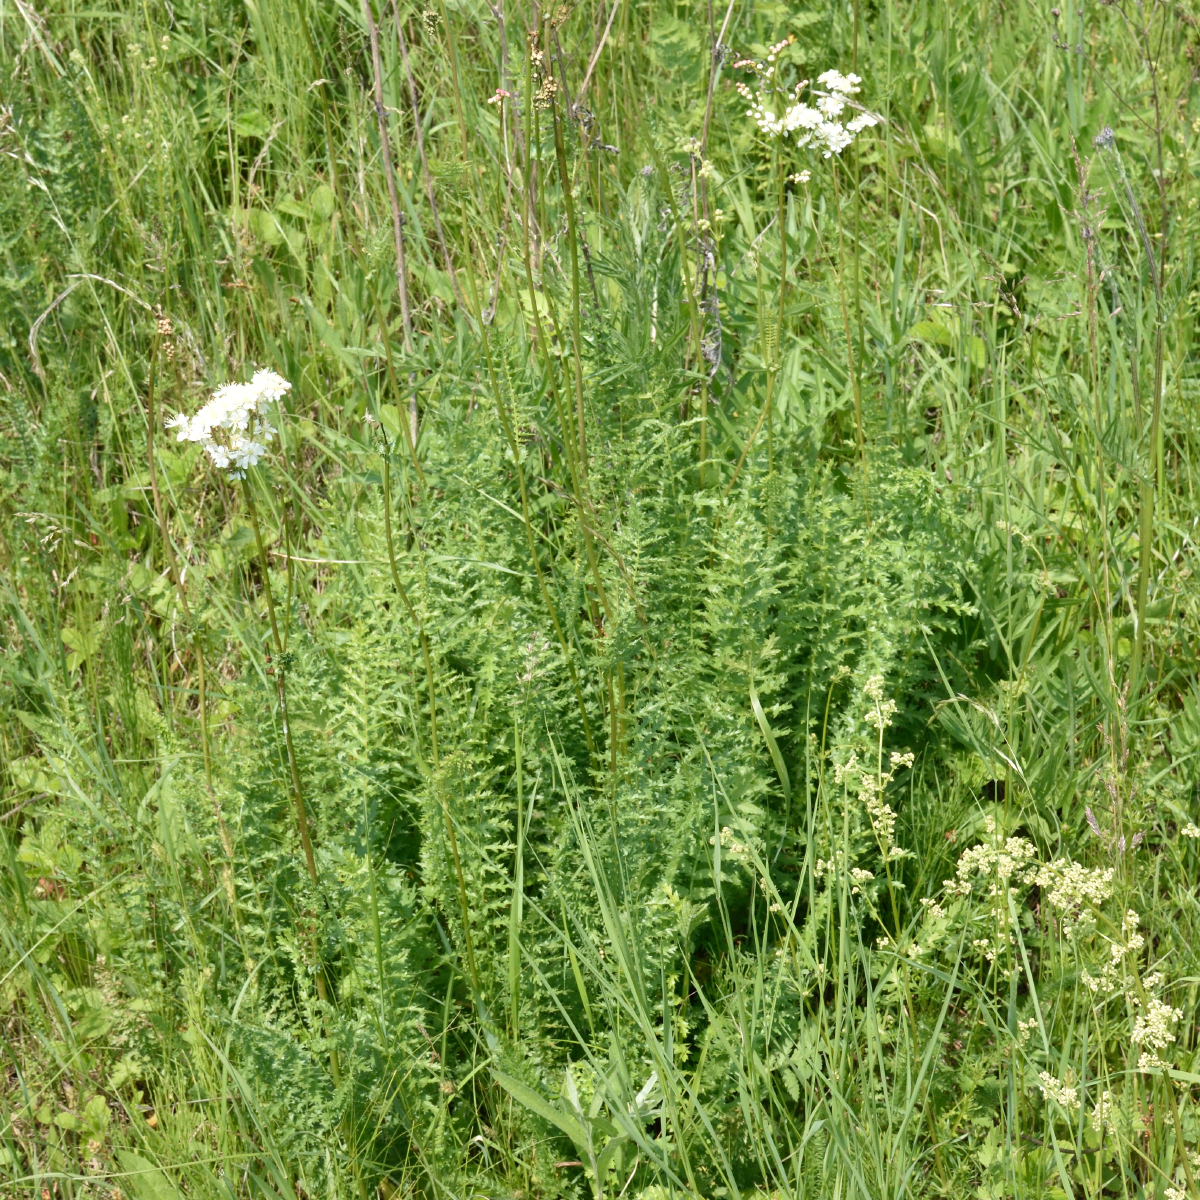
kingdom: Plantae
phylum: Tracheophyta
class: Magnoliopsida
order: Rosales
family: Rosaceae
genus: Filipendula
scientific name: Filipendula vulgaris
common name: Dropwort
